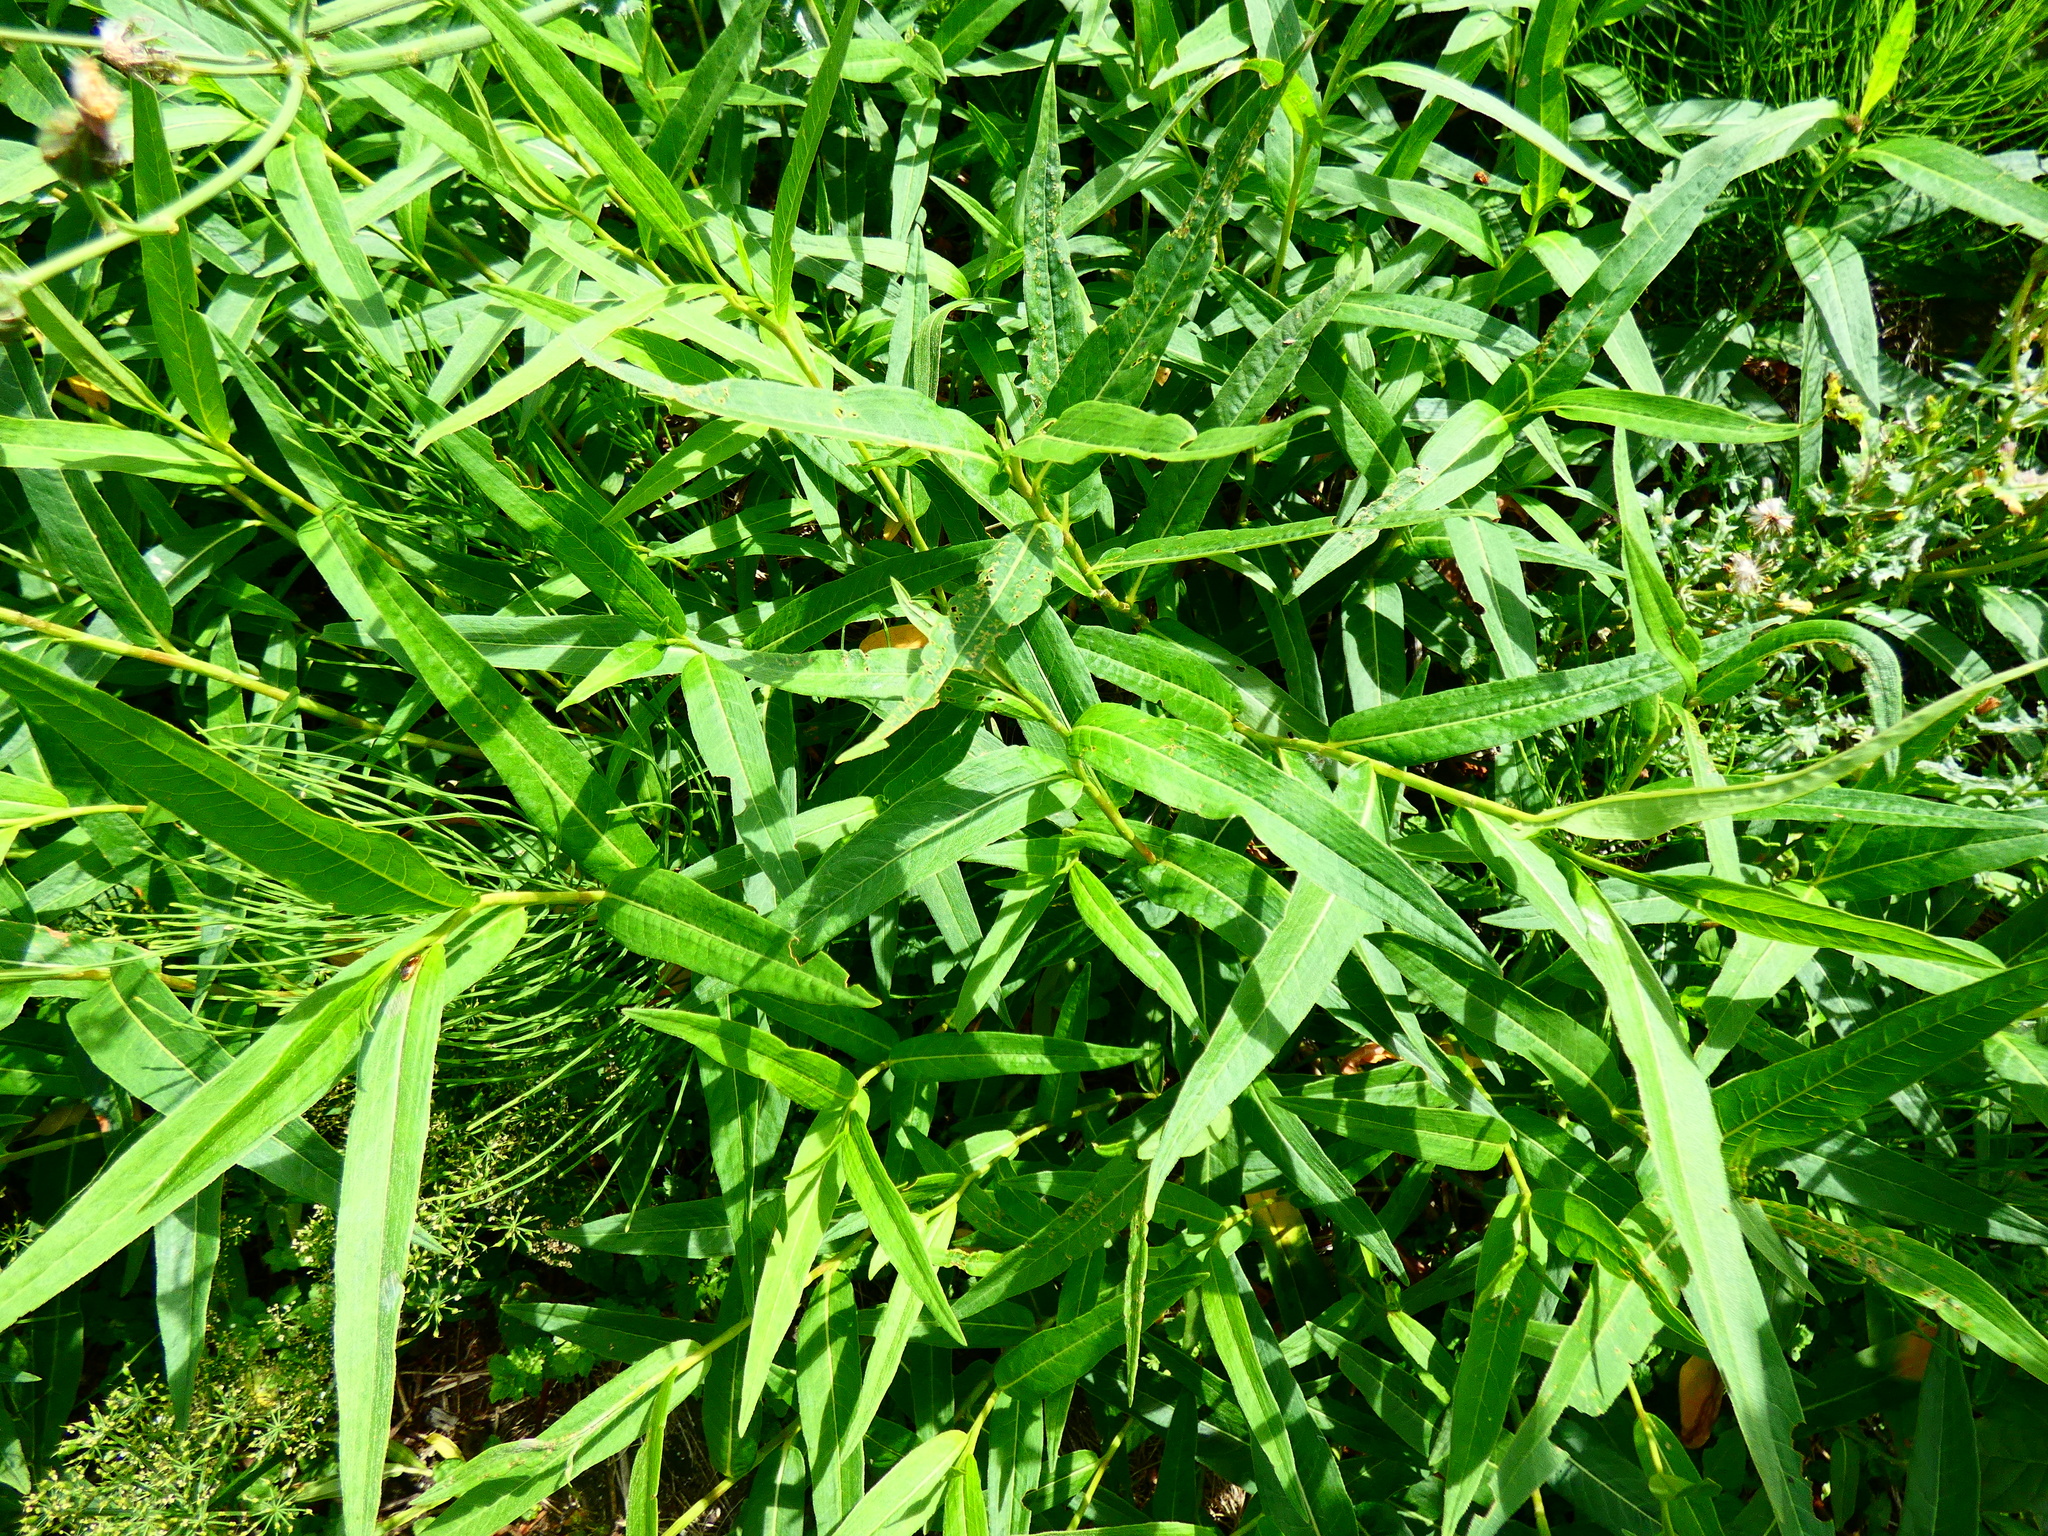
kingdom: Plantae
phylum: Tracheophyta
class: Magnoliopsida
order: Caryophyllales
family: Polygonaceae
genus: Persicaria
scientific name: Persicaria amphibia
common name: Amphibious bistort
